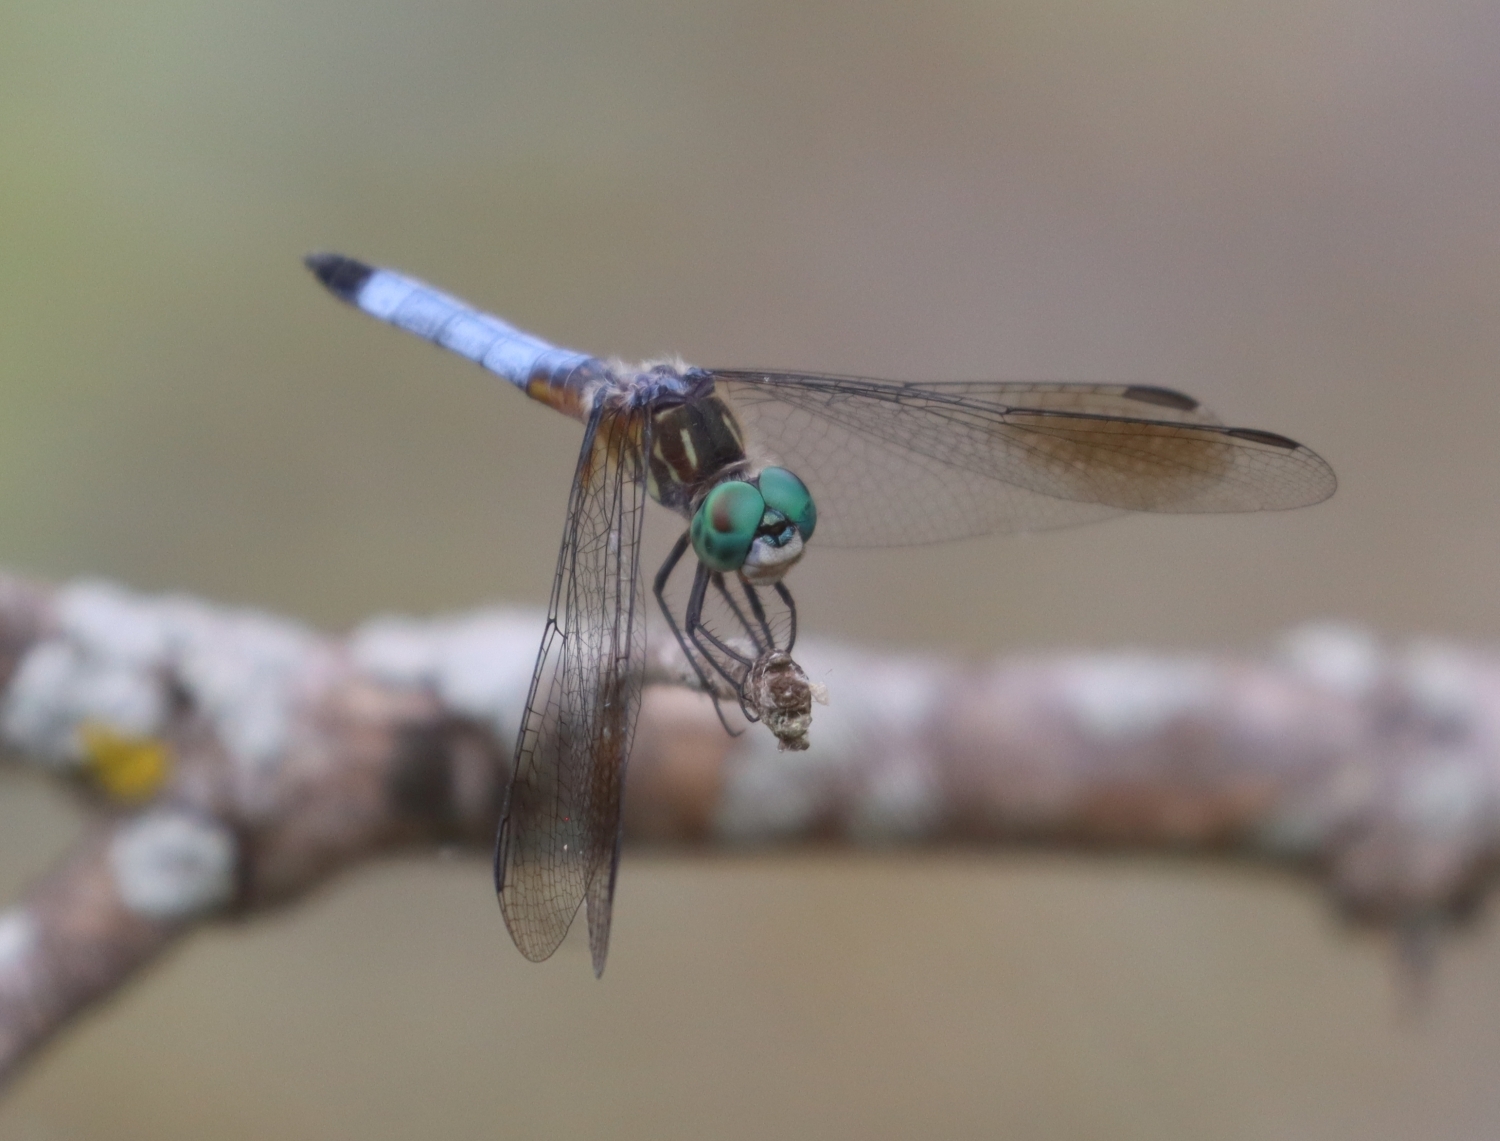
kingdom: Animalia
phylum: Arthropoda
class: Insecta
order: Odonata
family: Libellulidae
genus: Pachydiplax
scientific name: Pachydiplax longipennis
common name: Blue dasher
